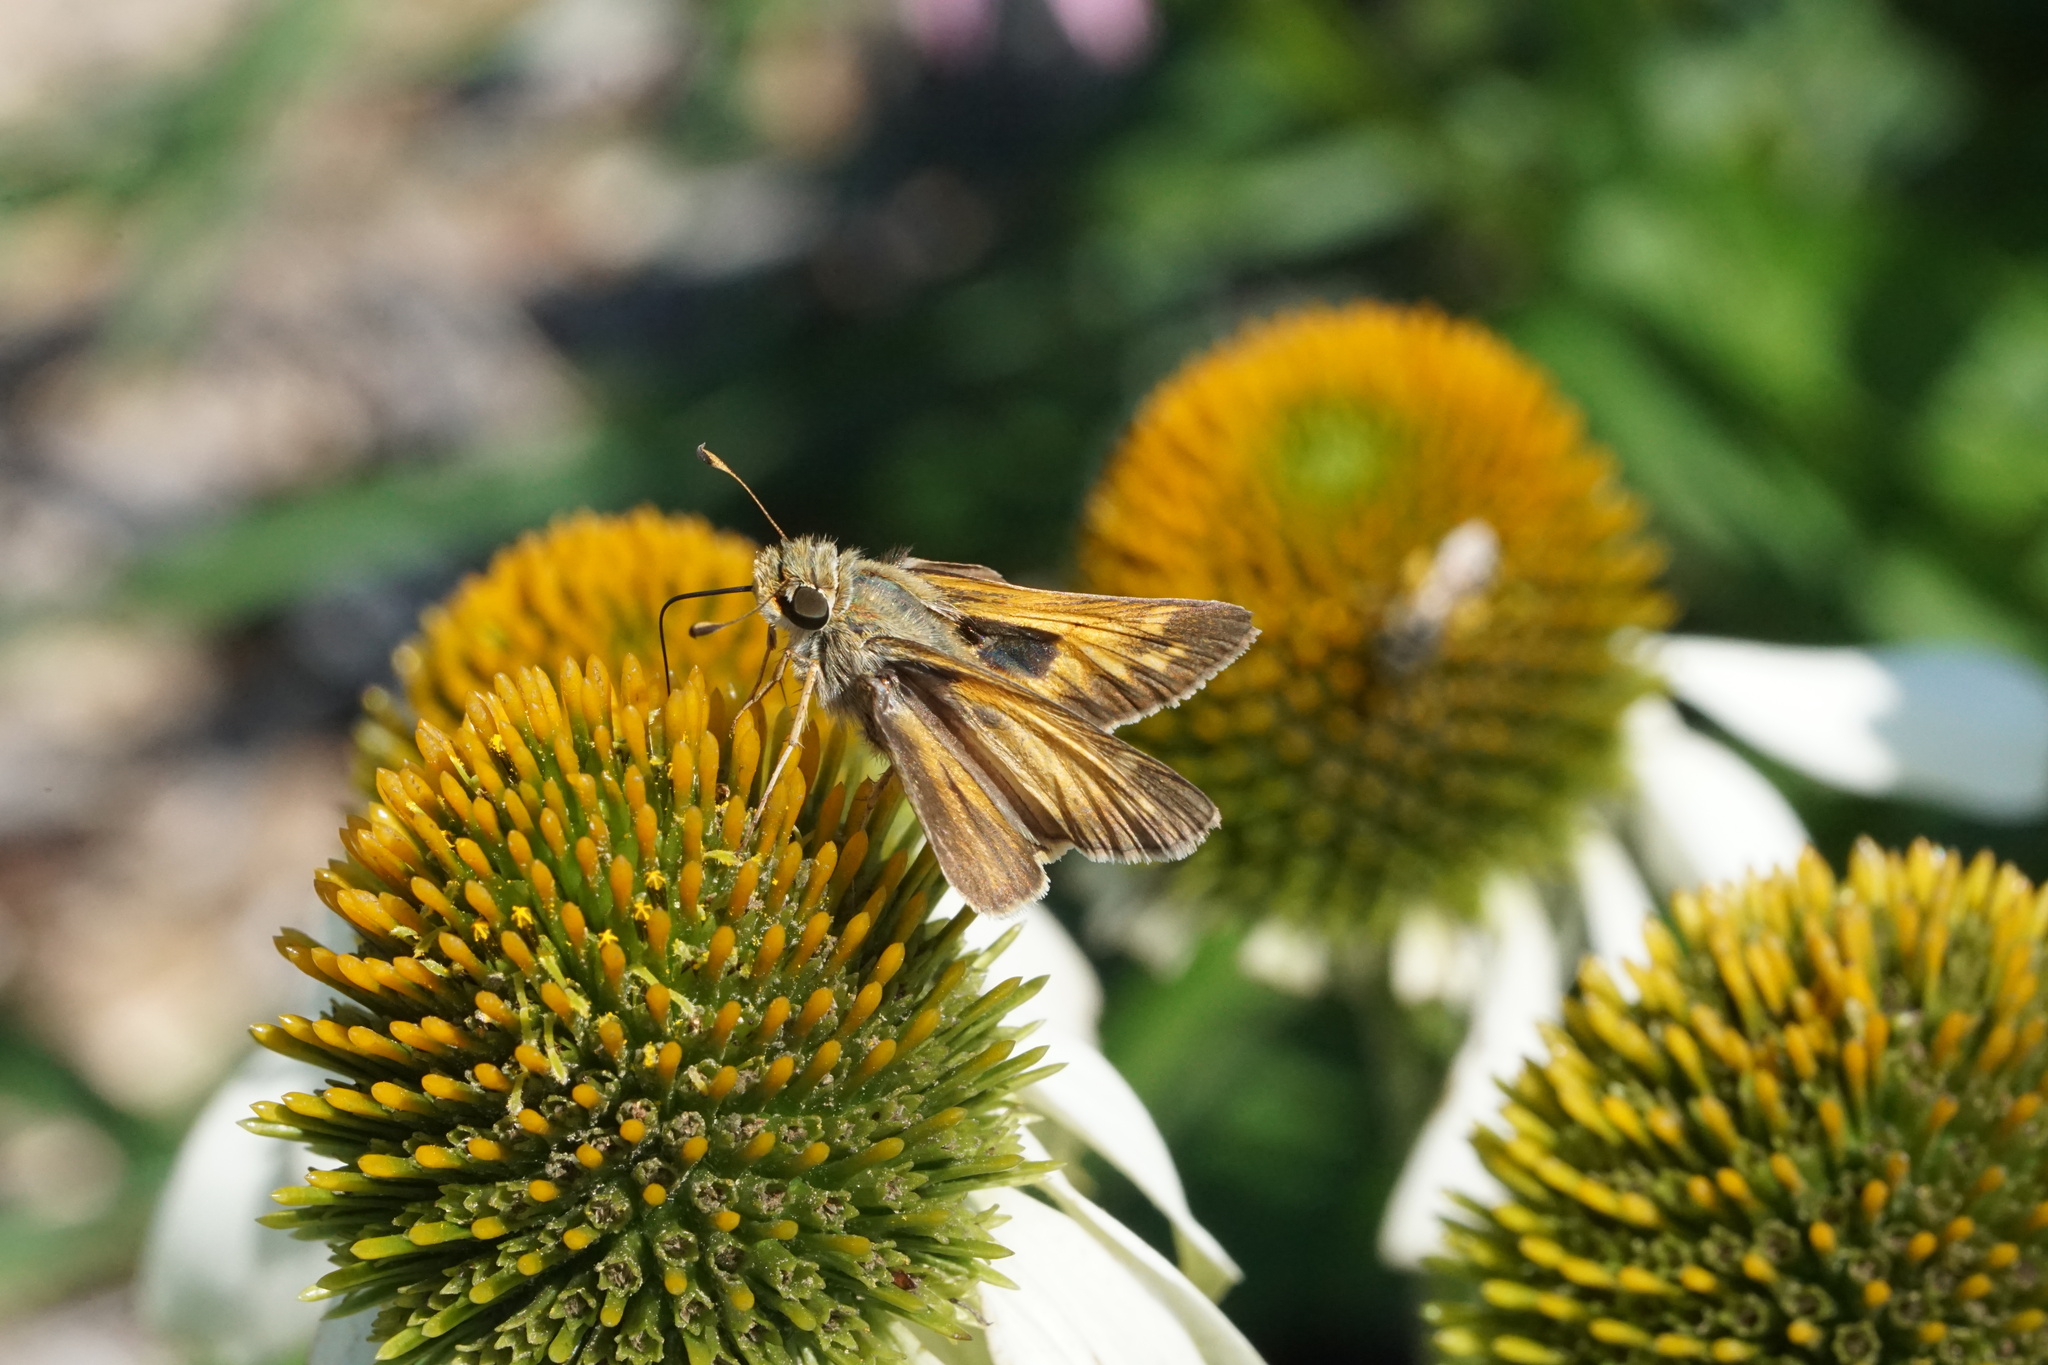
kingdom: Animalia
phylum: Arthropoda
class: Insecta
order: Lepidoptera
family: Hesperiidae
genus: Atalopedes
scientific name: Atalopedes
